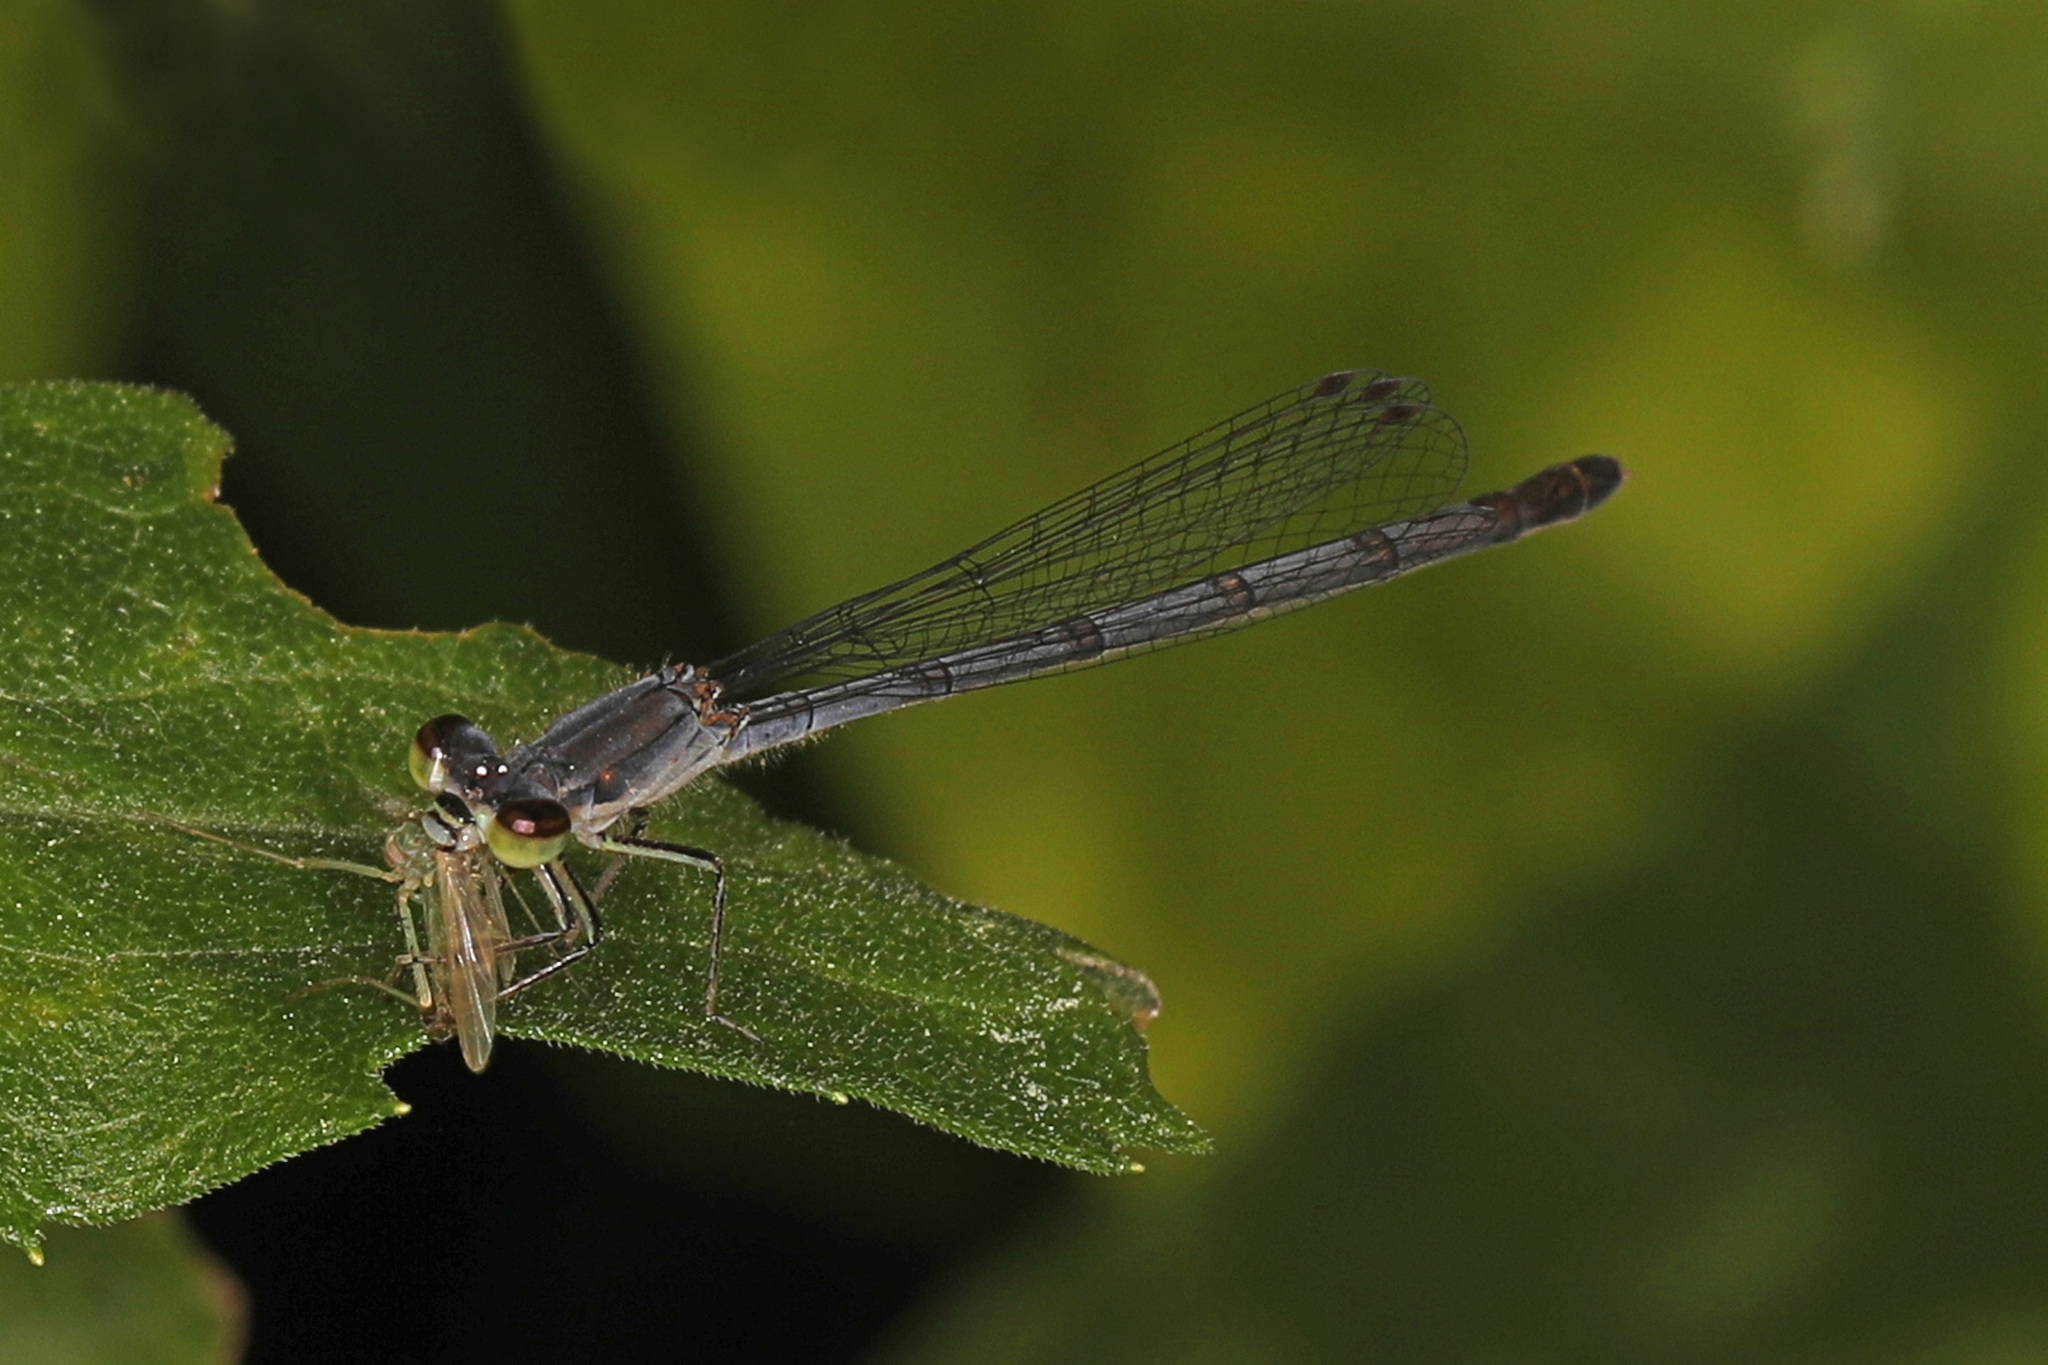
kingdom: Animalia
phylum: Arthropoda
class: Insecta
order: Odonata
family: Coenagrionidae
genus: Ischnura
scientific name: Ischnura posita
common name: Fragile forktail
